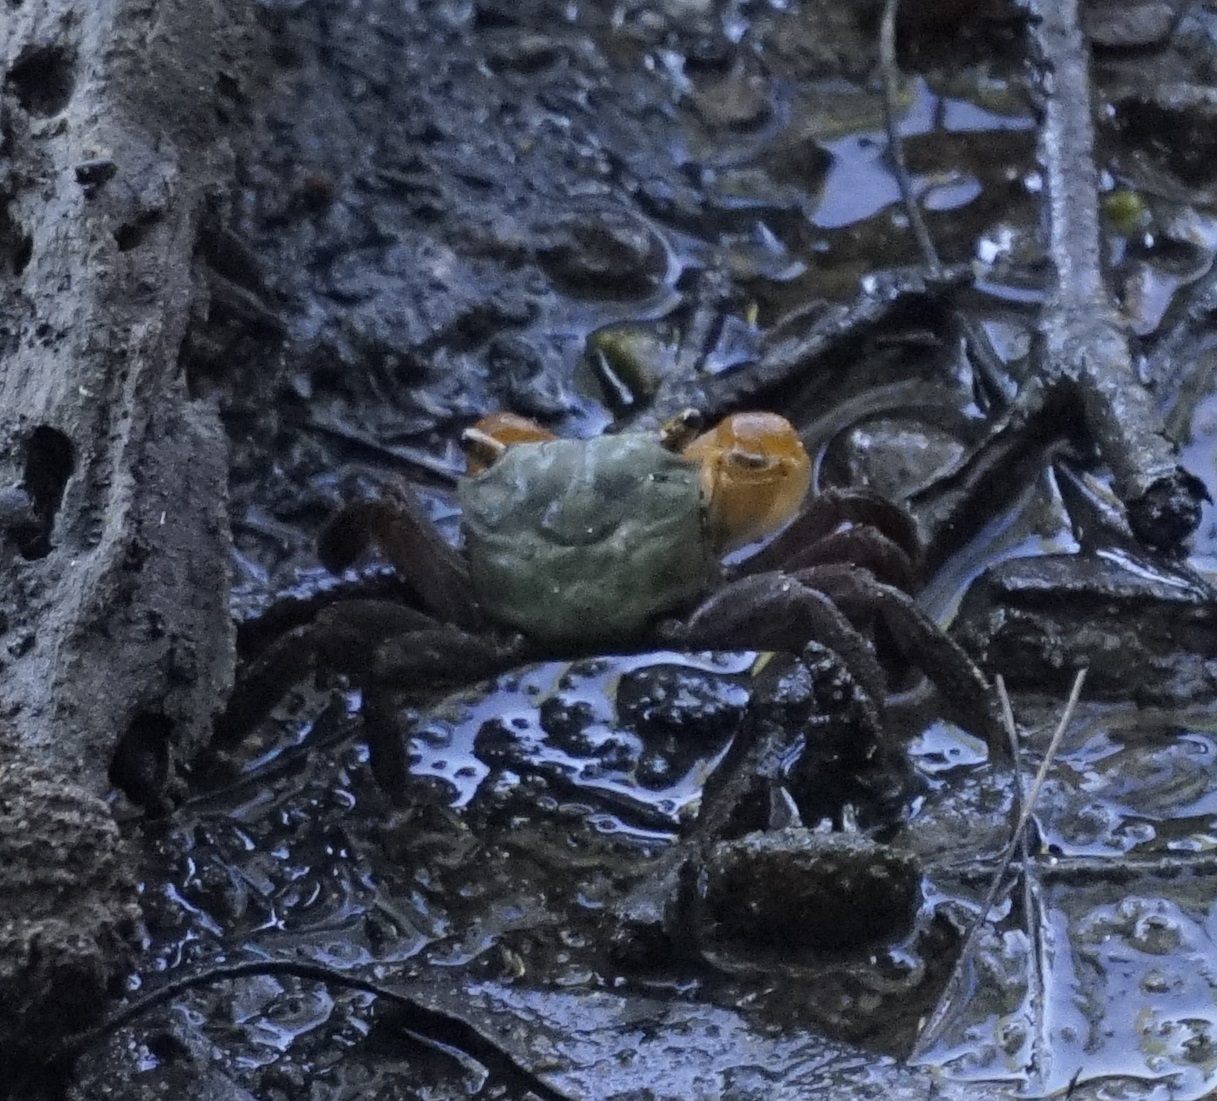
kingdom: Animalia
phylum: Arthropoda
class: Malacostraca
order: Decapoda
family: Sesarmidae
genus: Parasesarma
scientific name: Parasesarma erythodactylum
